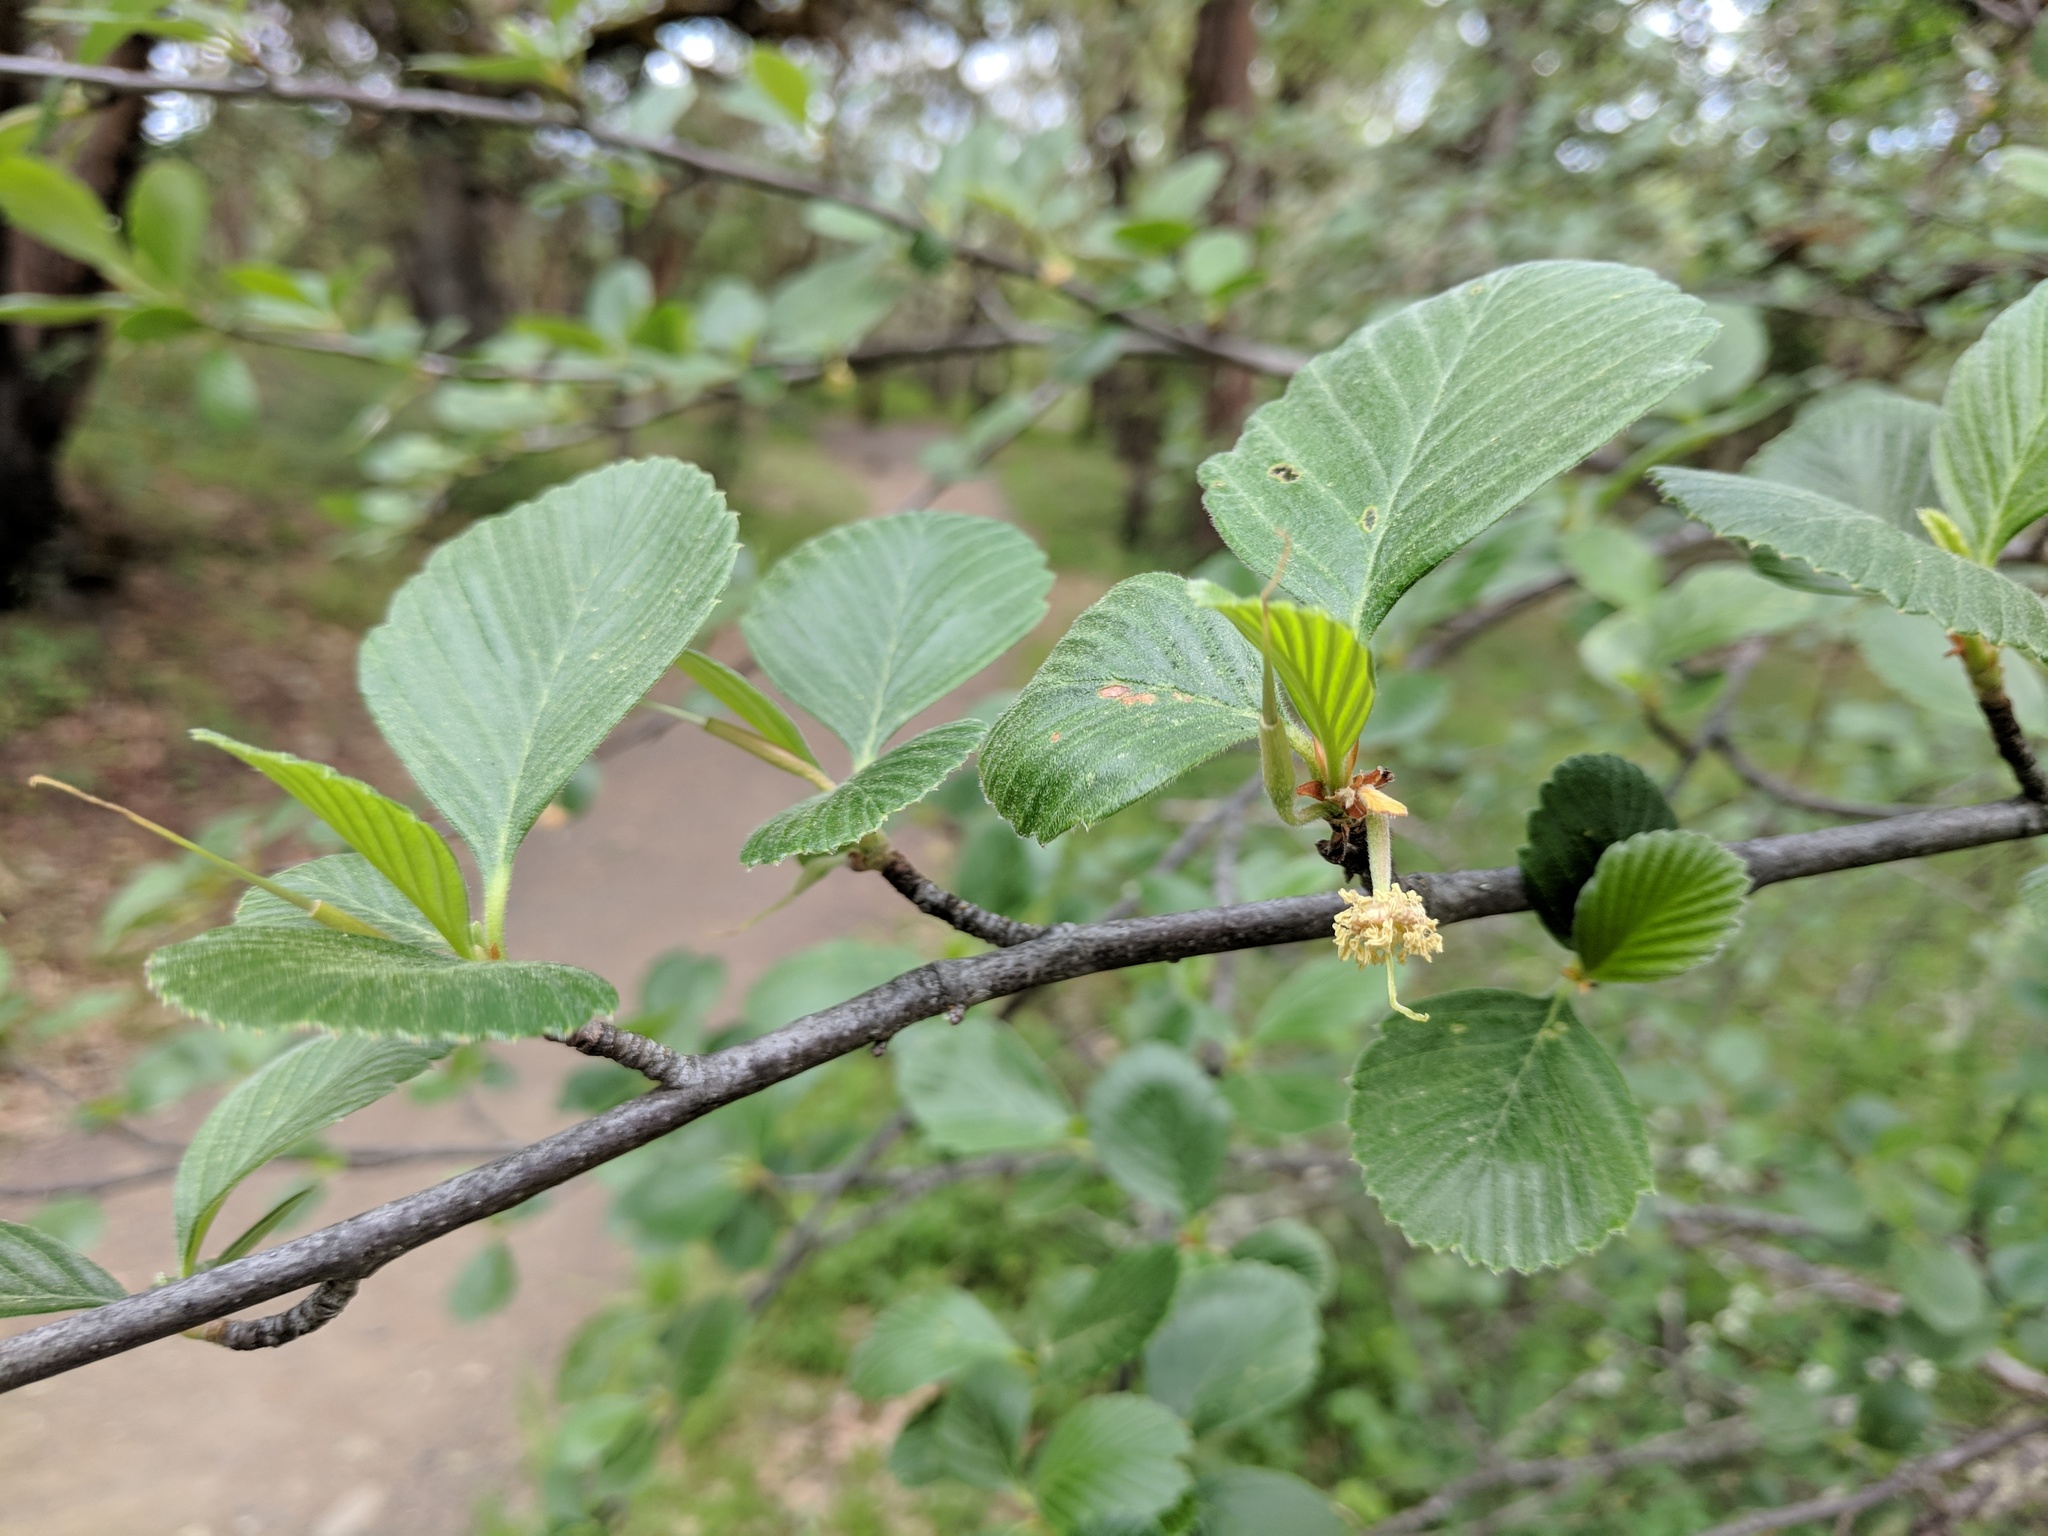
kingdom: Plantae
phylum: Tracheophyta
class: Magnoliopsida
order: Rosales
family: Rosaceae
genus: Cercocarpus
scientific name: Cercocarpus betuloides
